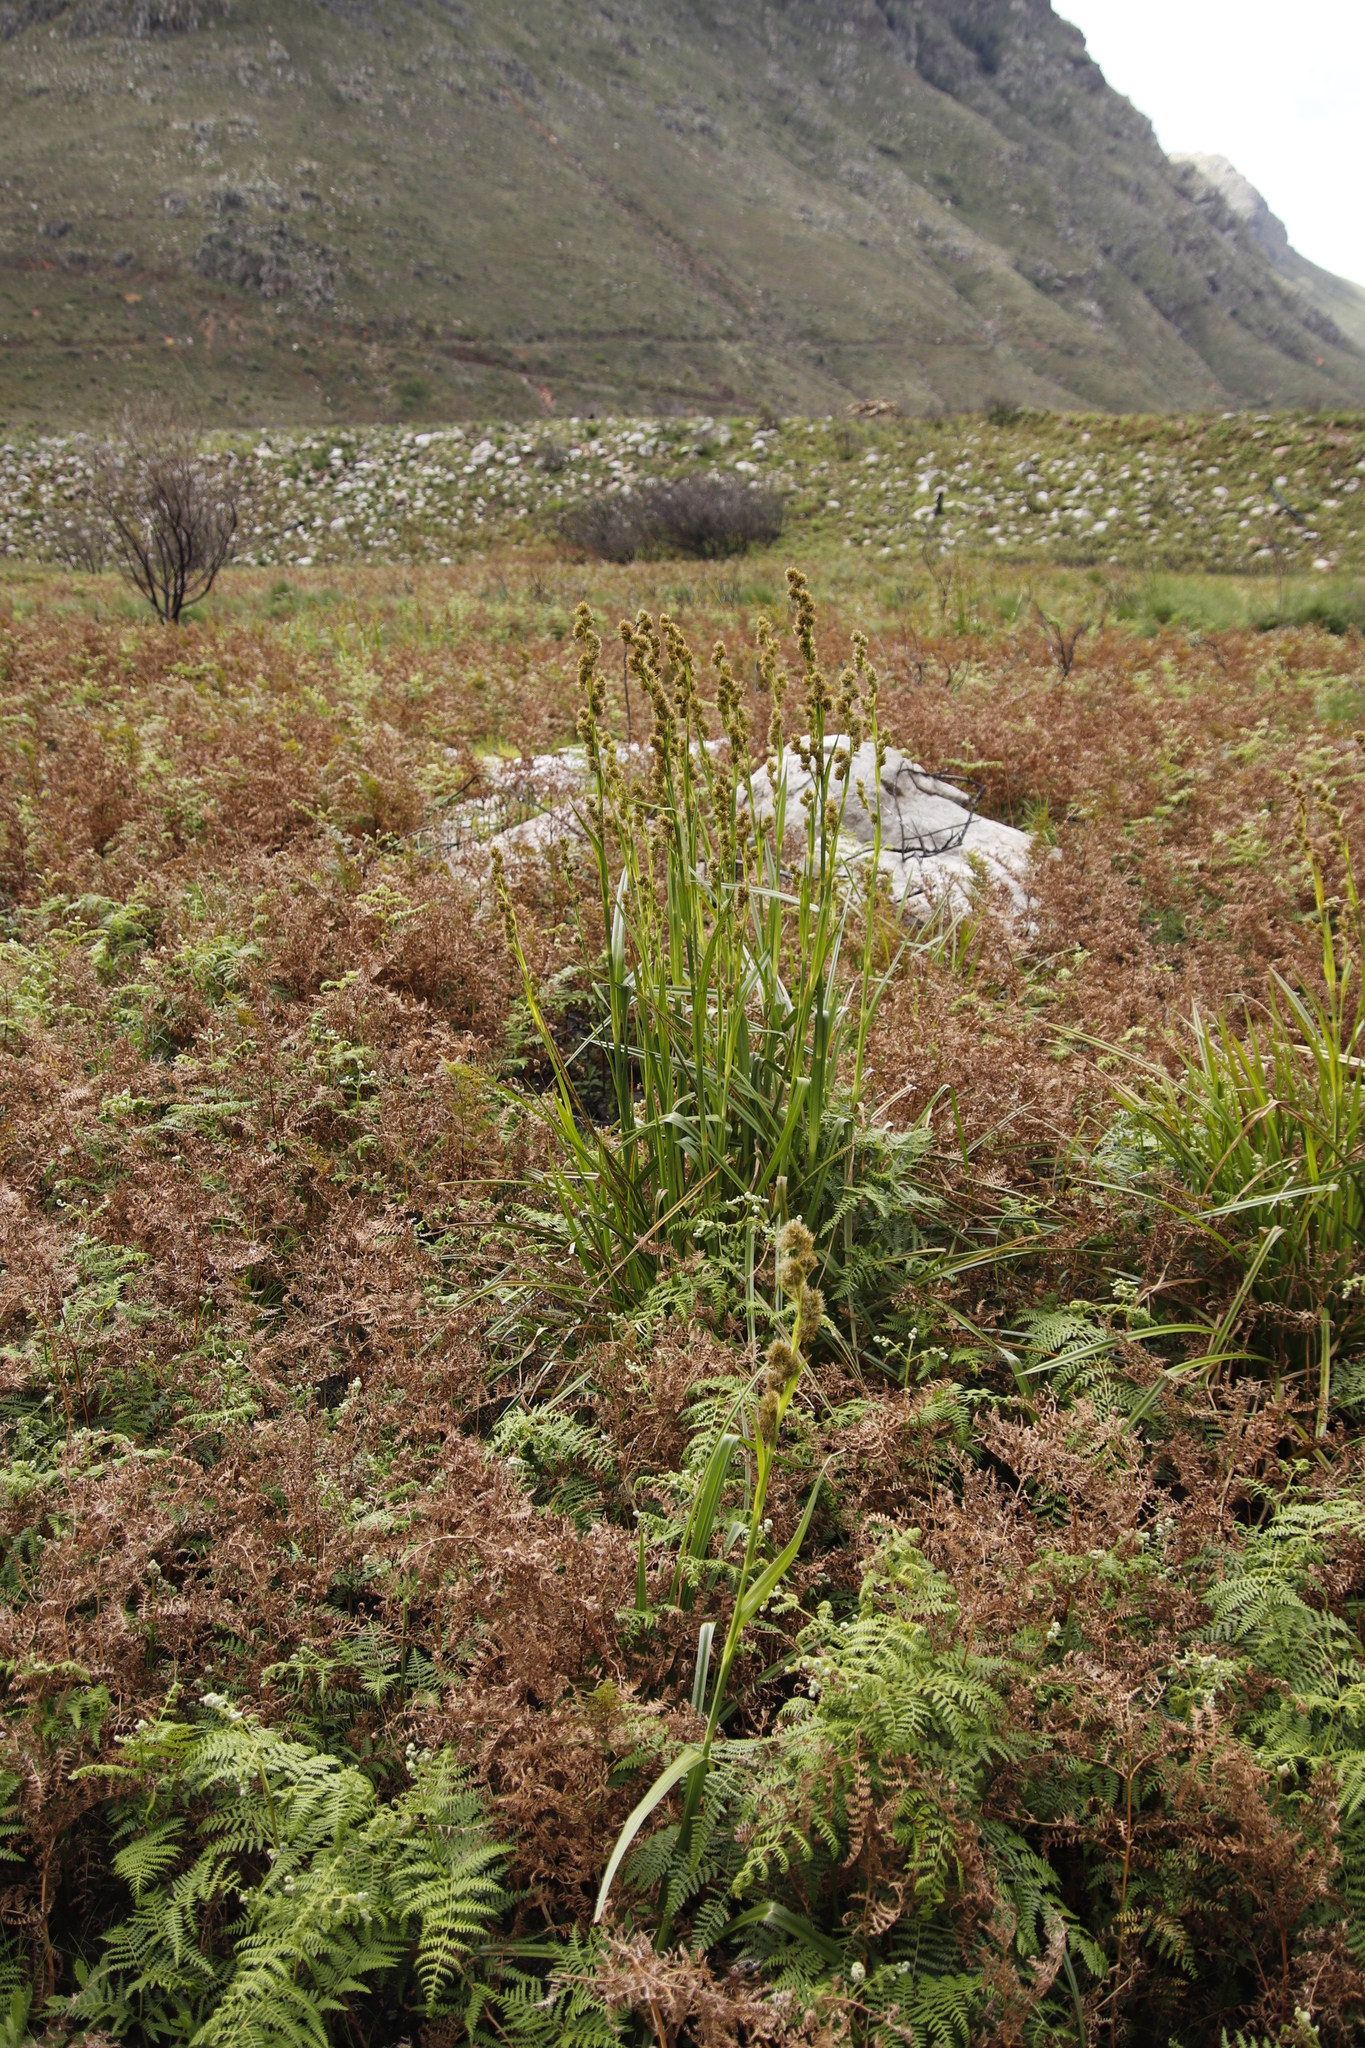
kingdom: Plantae
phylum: Tracheophyta
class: Liliopsida
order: Poales
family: Cyperaceae
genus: Carpha
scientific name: Carpha glomerata
